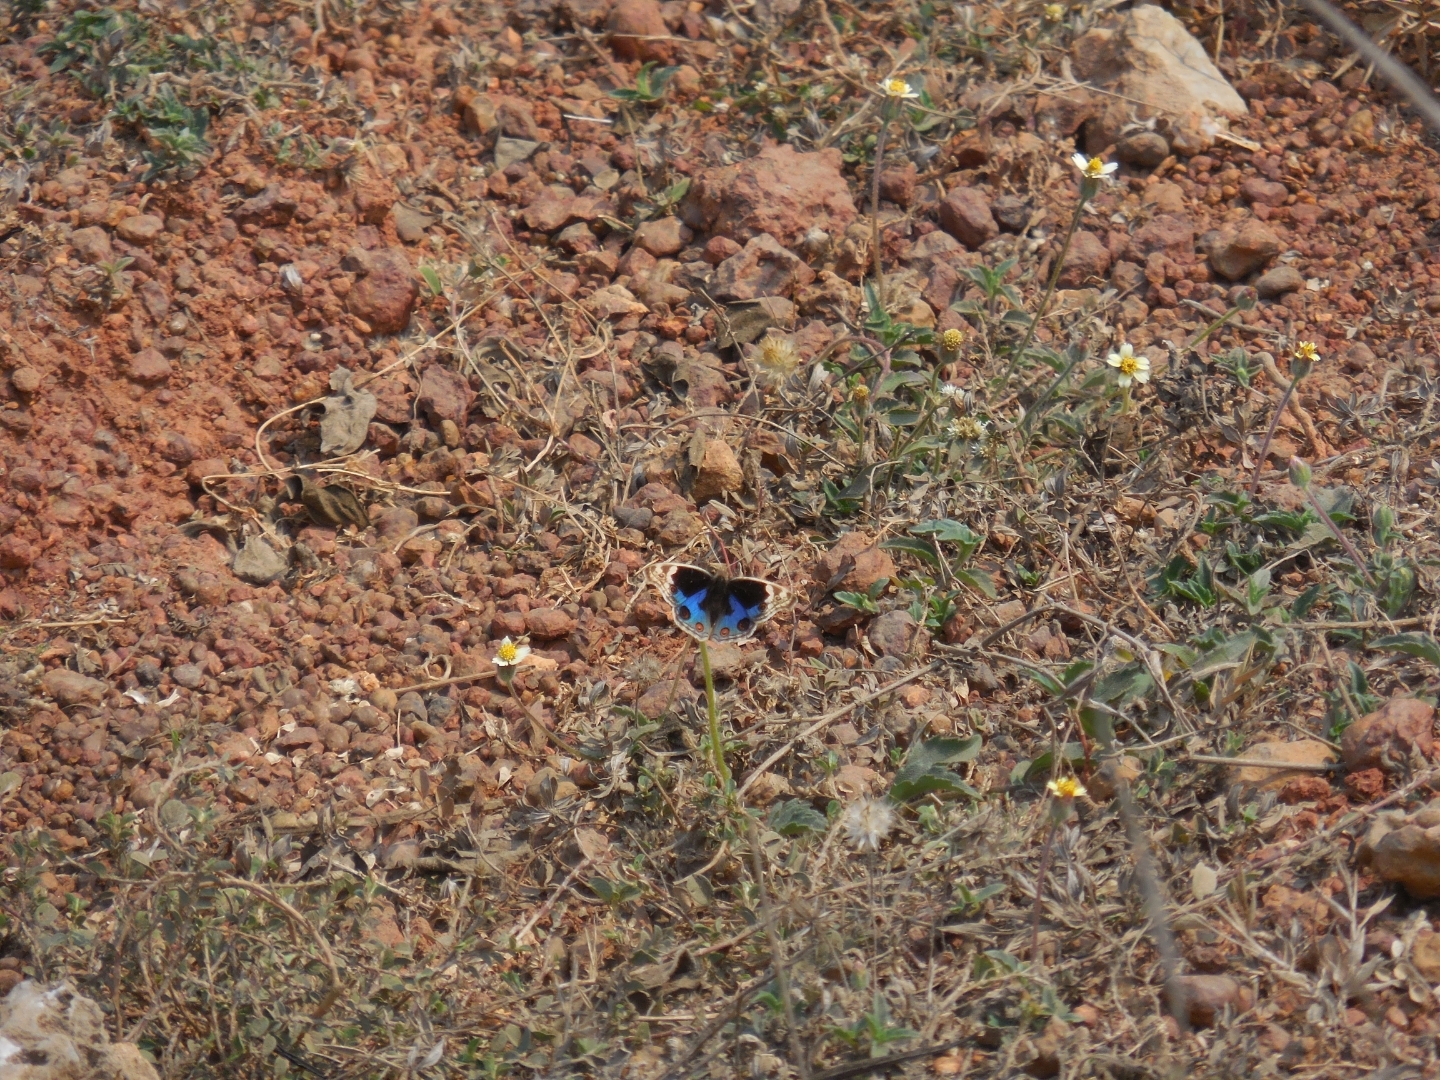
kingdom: Animalia
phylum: Arthropoda
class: Insecta
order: Lepidoptera
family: Nymphalidae
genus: Junonia
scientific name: Junonia orithya
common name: Blue pansy
